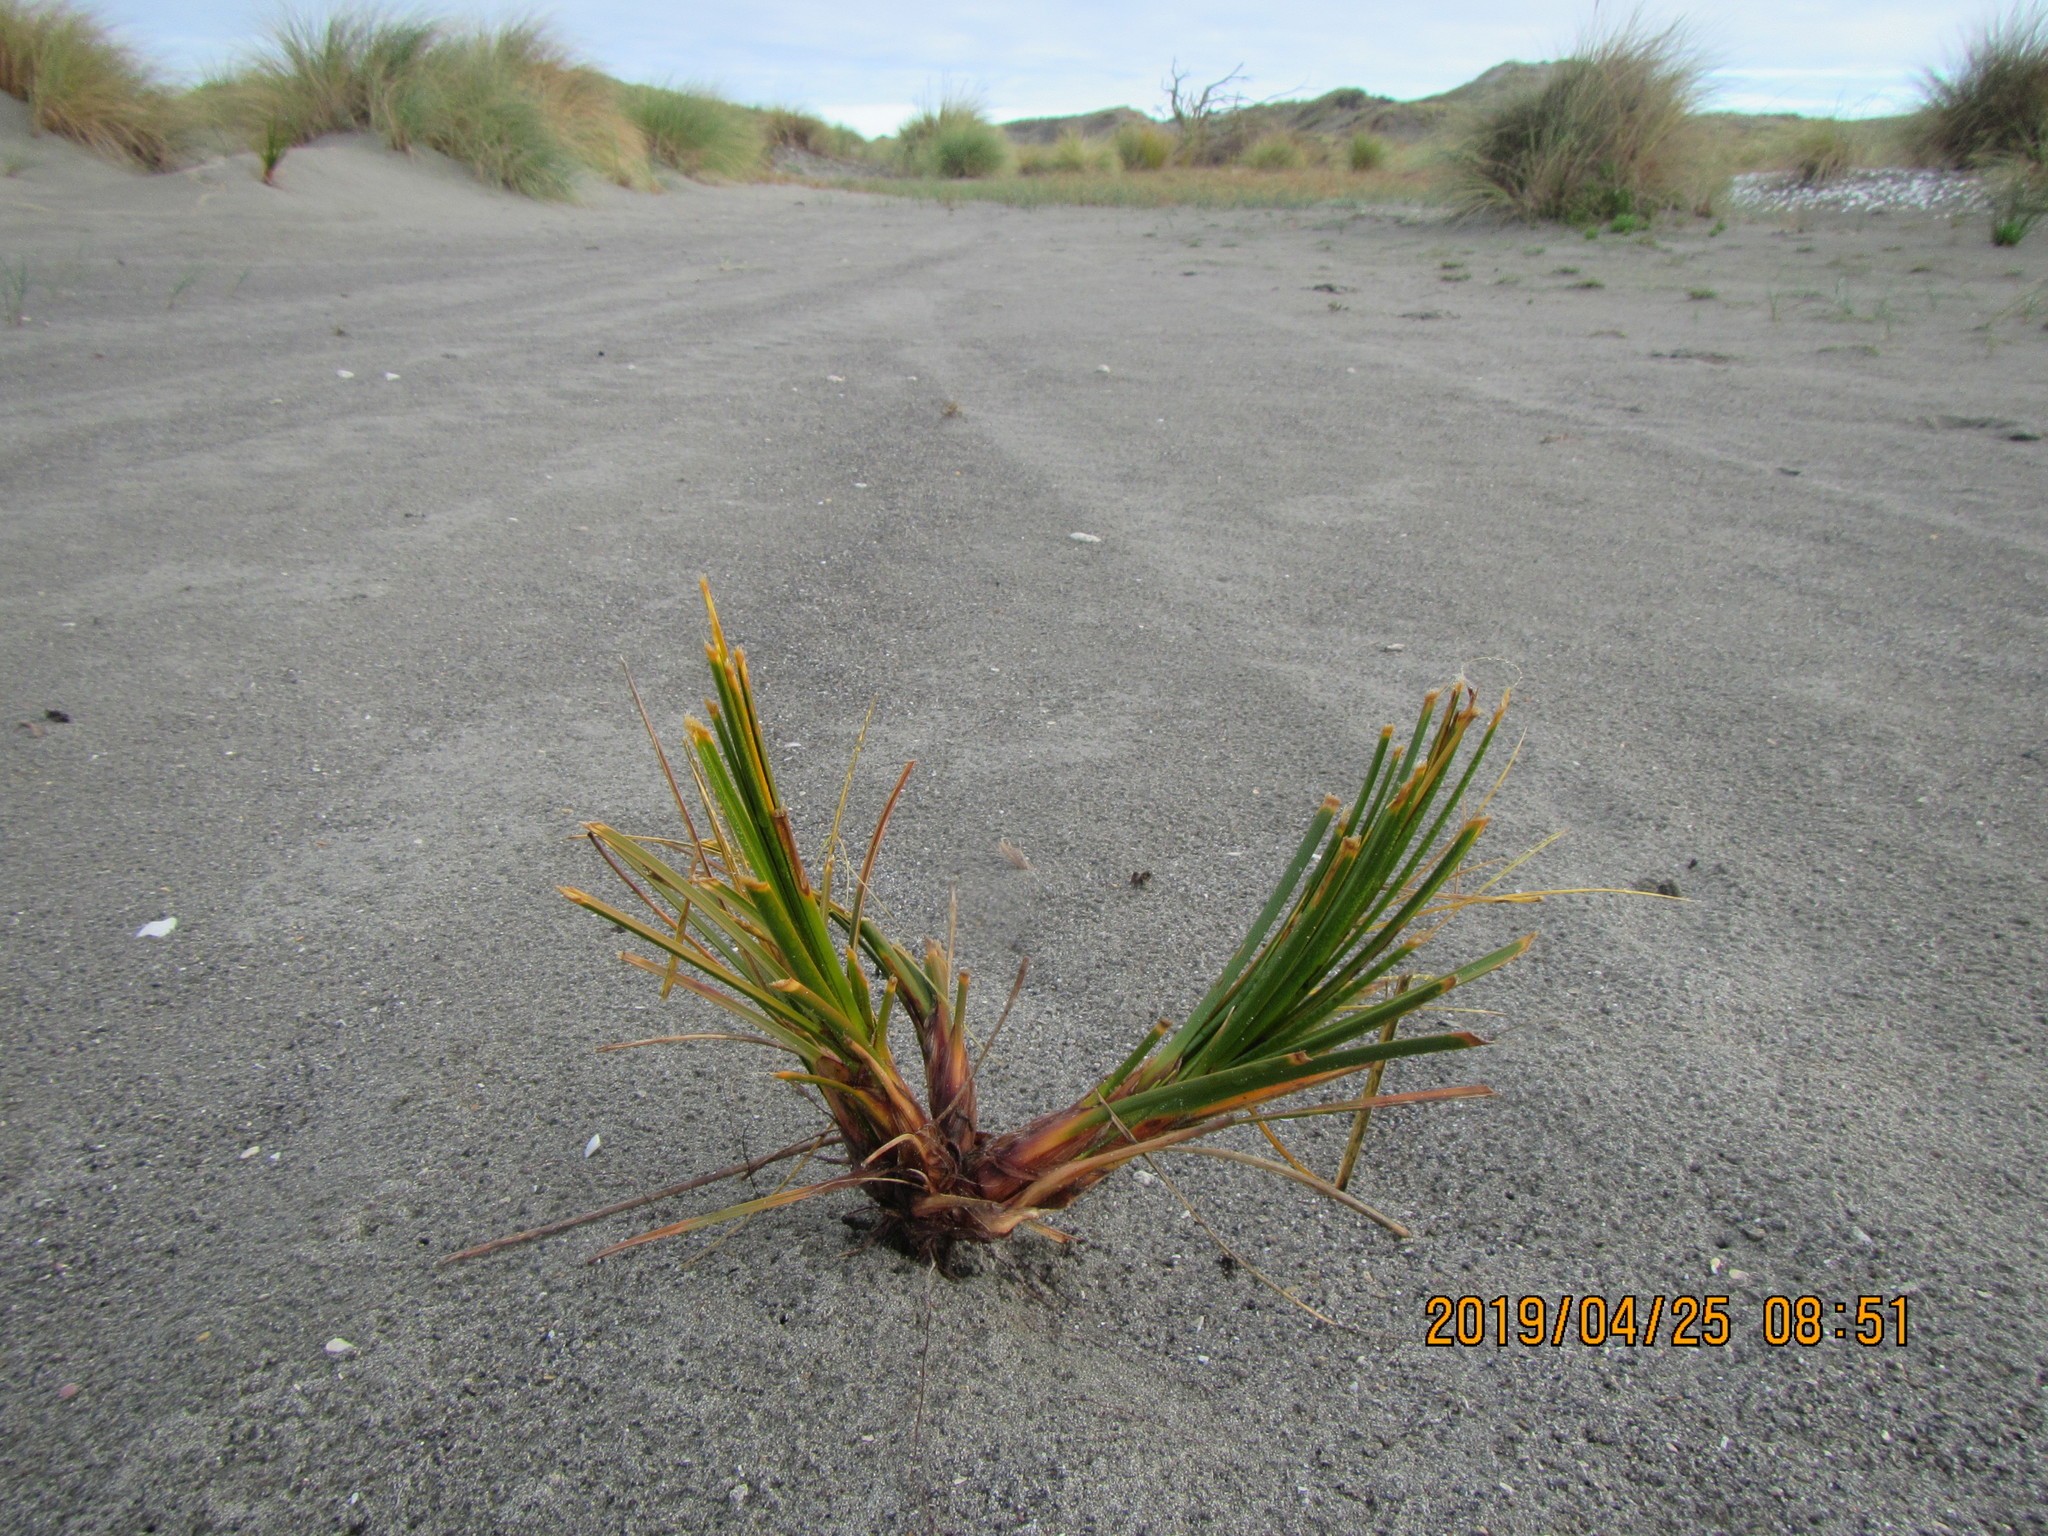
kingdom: Plantae
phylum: Tracheophyta
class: Liliopsida
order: Poales
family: Cyperaceae
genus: Ficinia
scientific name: Ficinia spiralis
